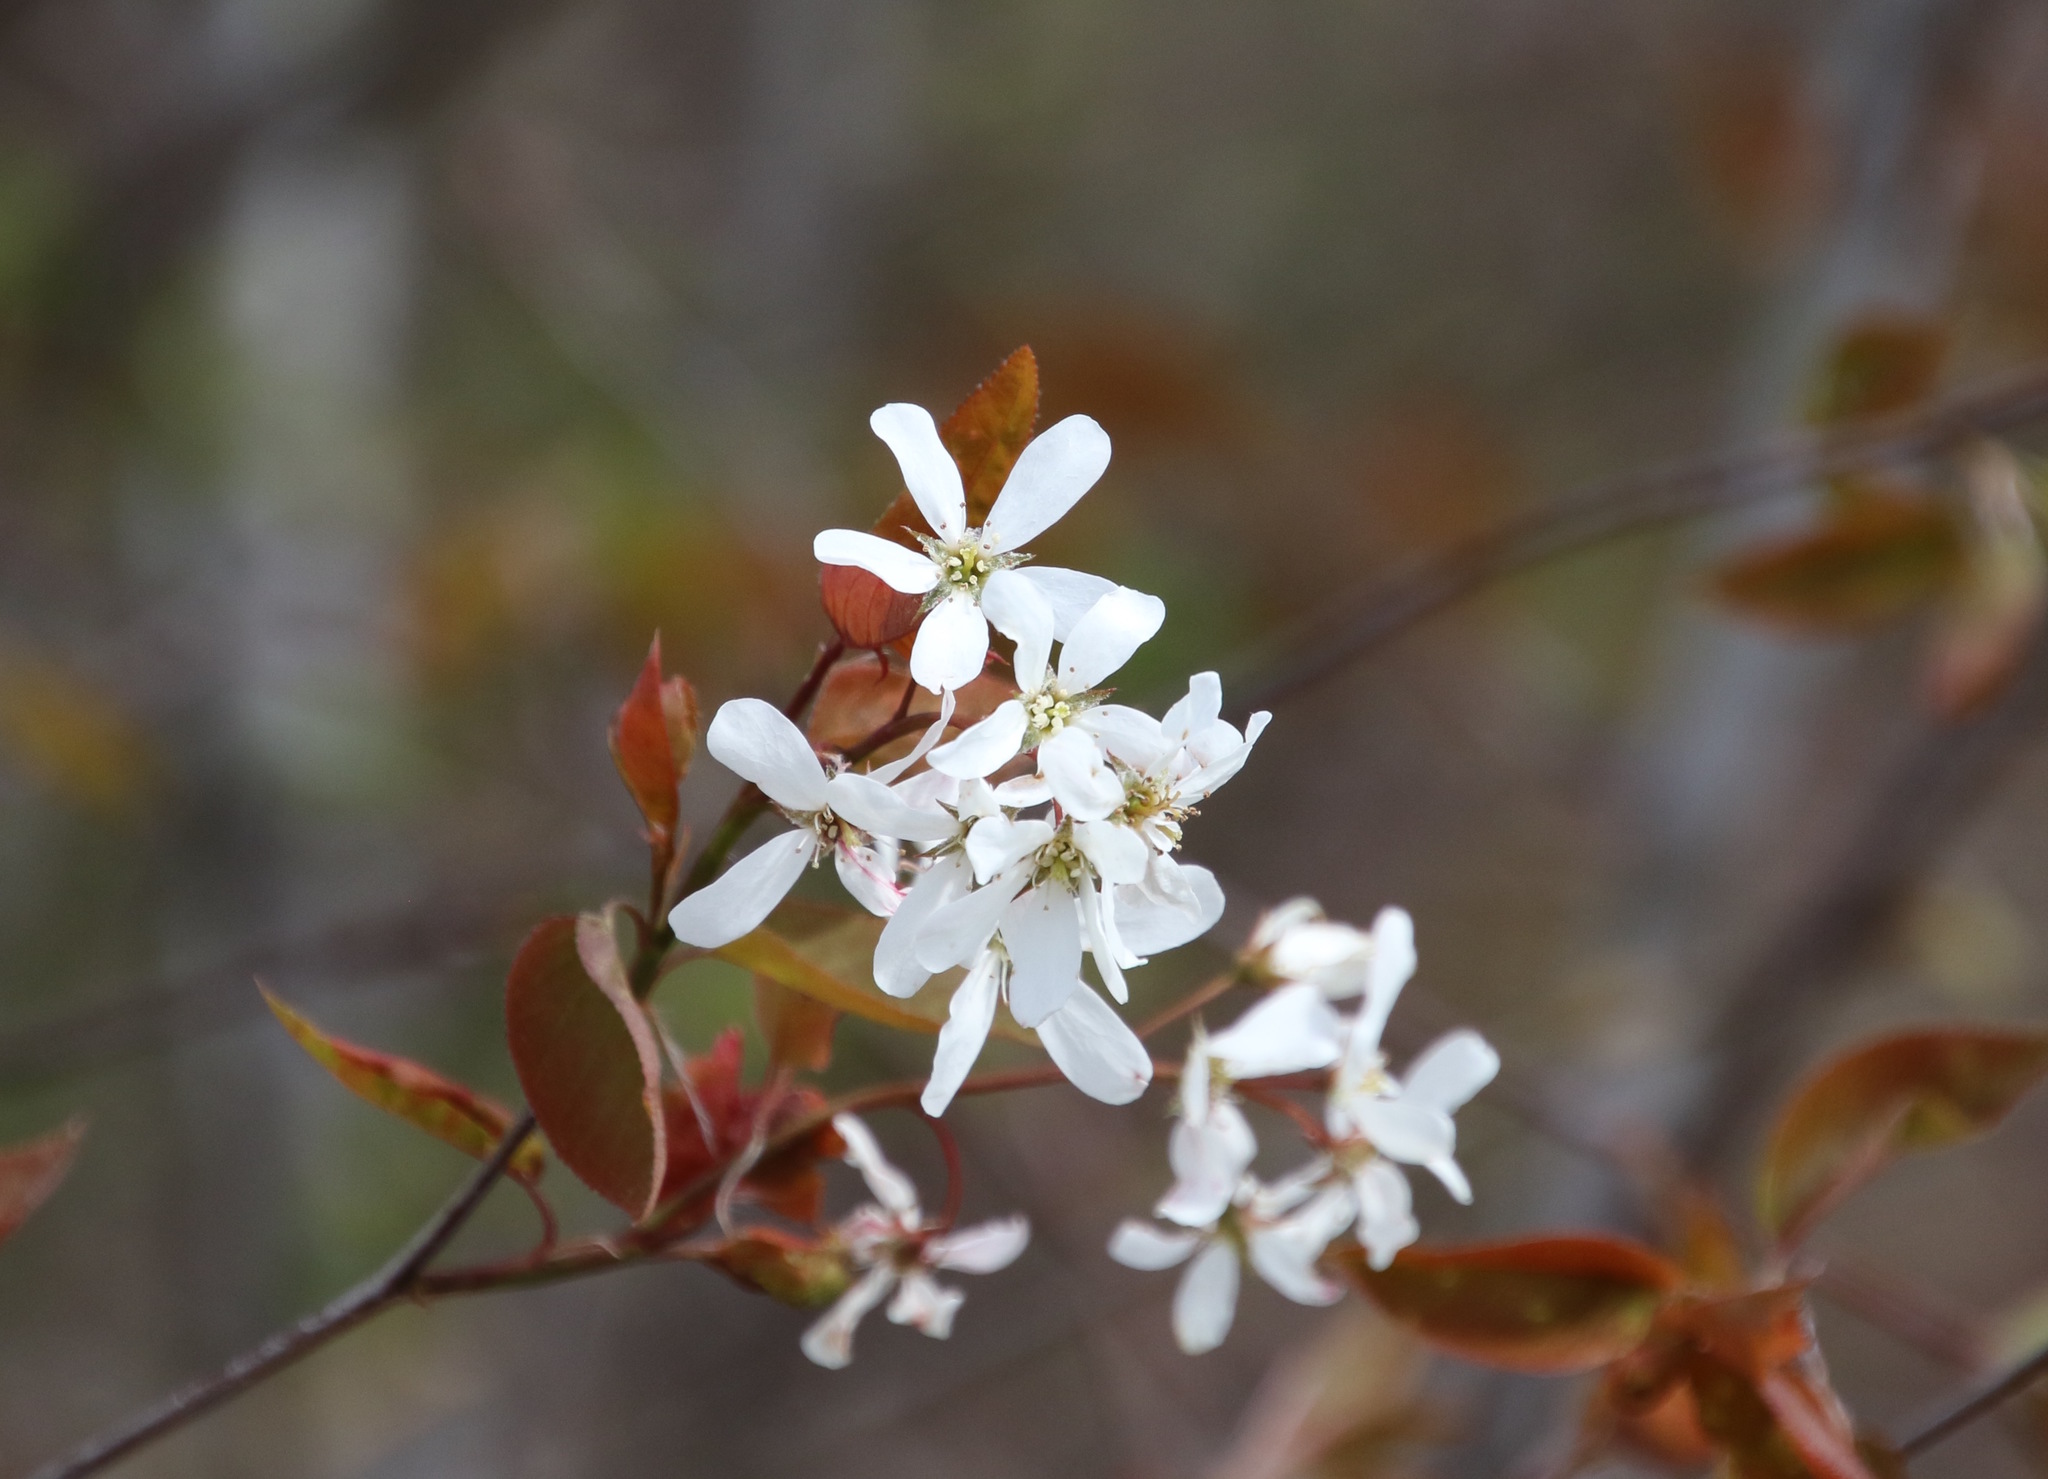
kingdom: Plantae
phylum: Tracheophyta
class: Magnoliopsida
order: Rosales
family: Rosaceae
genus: Amelanchier
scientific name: Amelanchier arborea
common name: Downy serviceberry
